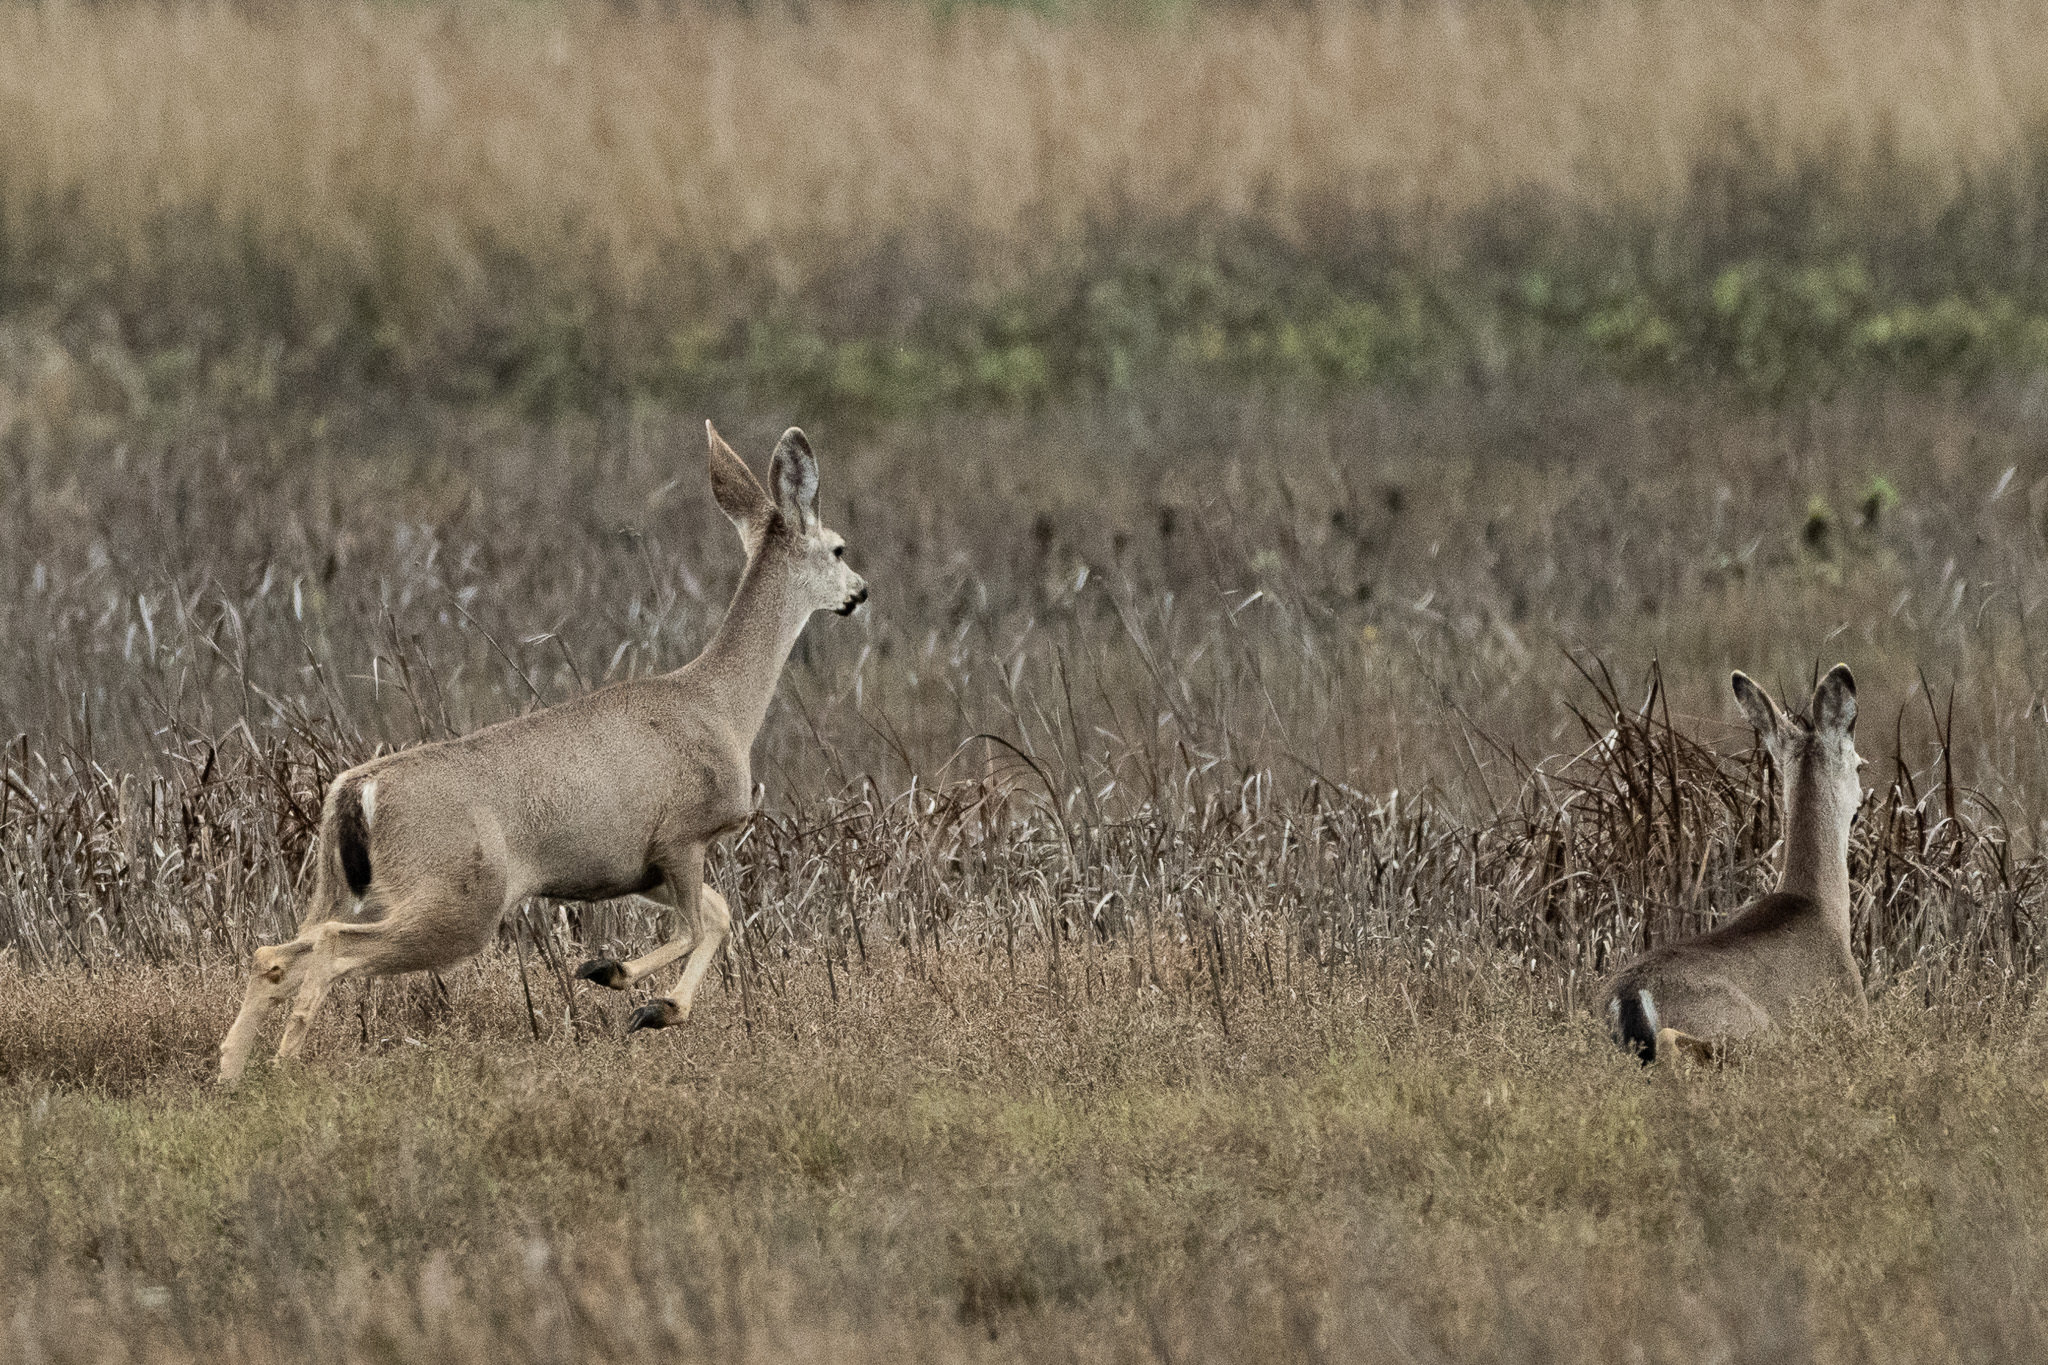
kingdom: Animalia
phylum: Chordata
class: Mammalia
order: Artiodactyla
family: Cervidae
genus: Odocoileus
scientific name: Odocoileus hemionus
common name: Mule deer
